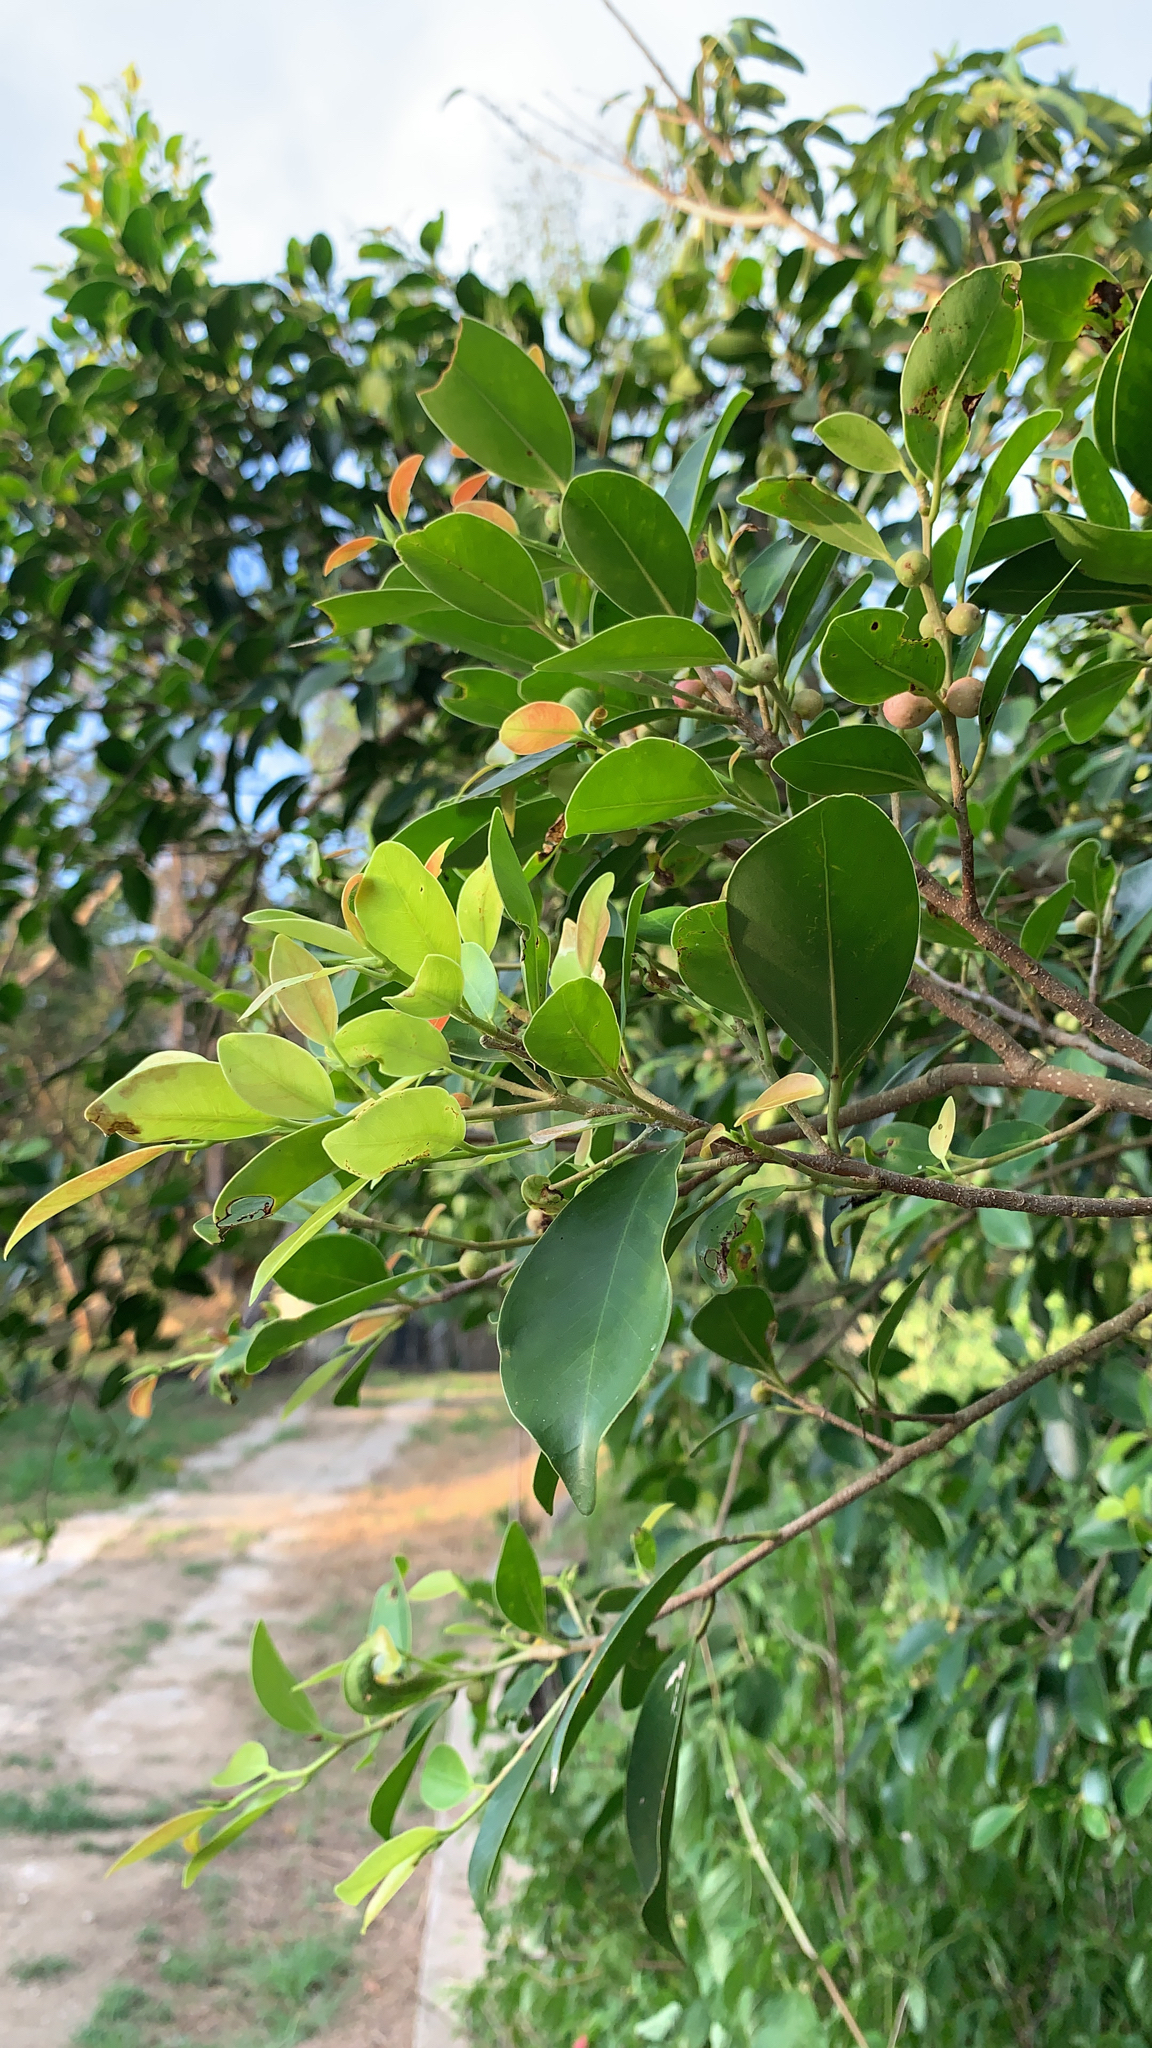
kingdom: Plantae
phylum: Tracheophyta
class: Magnoliopsida
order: Rosales
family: Moraceae
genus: Ficus
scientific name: Ficus microcarpa
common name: Chinese banyan
